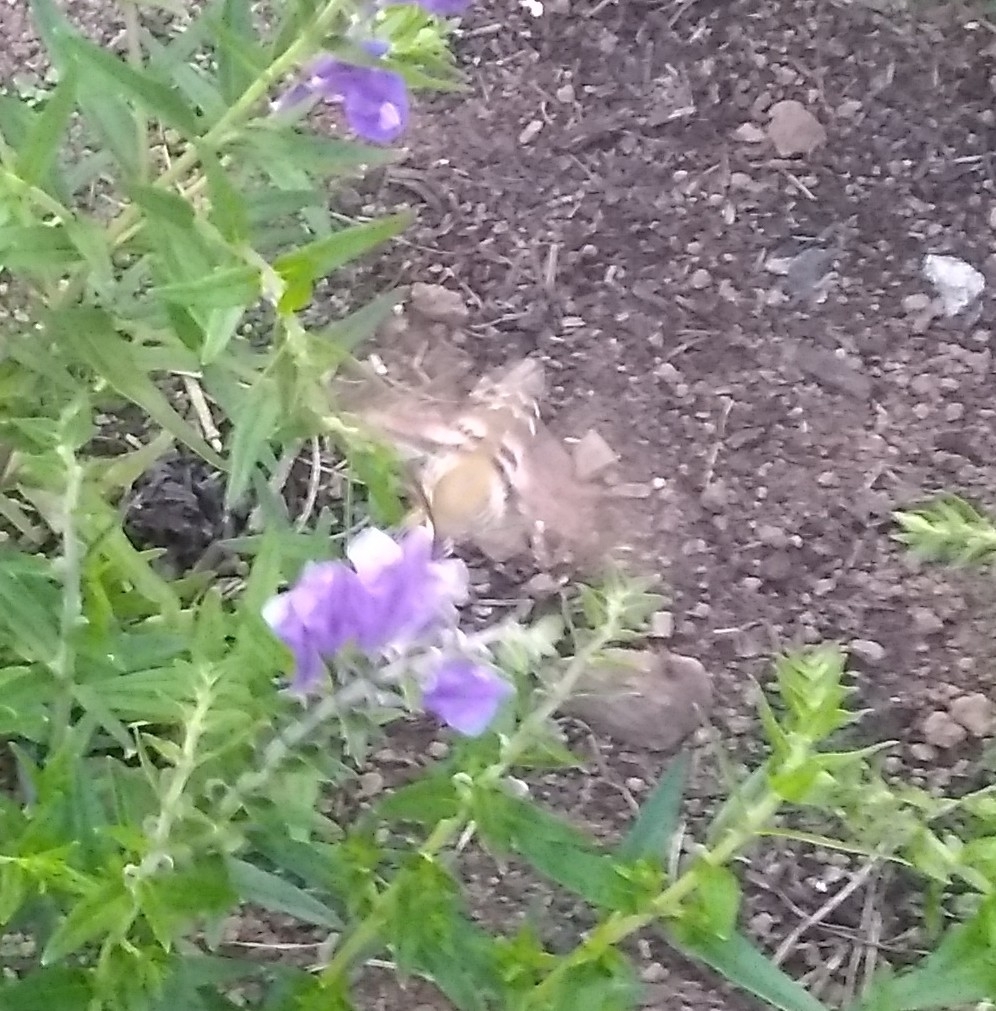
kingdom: Animalia
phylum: Arthropoda
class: Insecta
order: Lepidoptera
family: Sphingidae
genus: Hyles
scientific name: Hyles gallii
